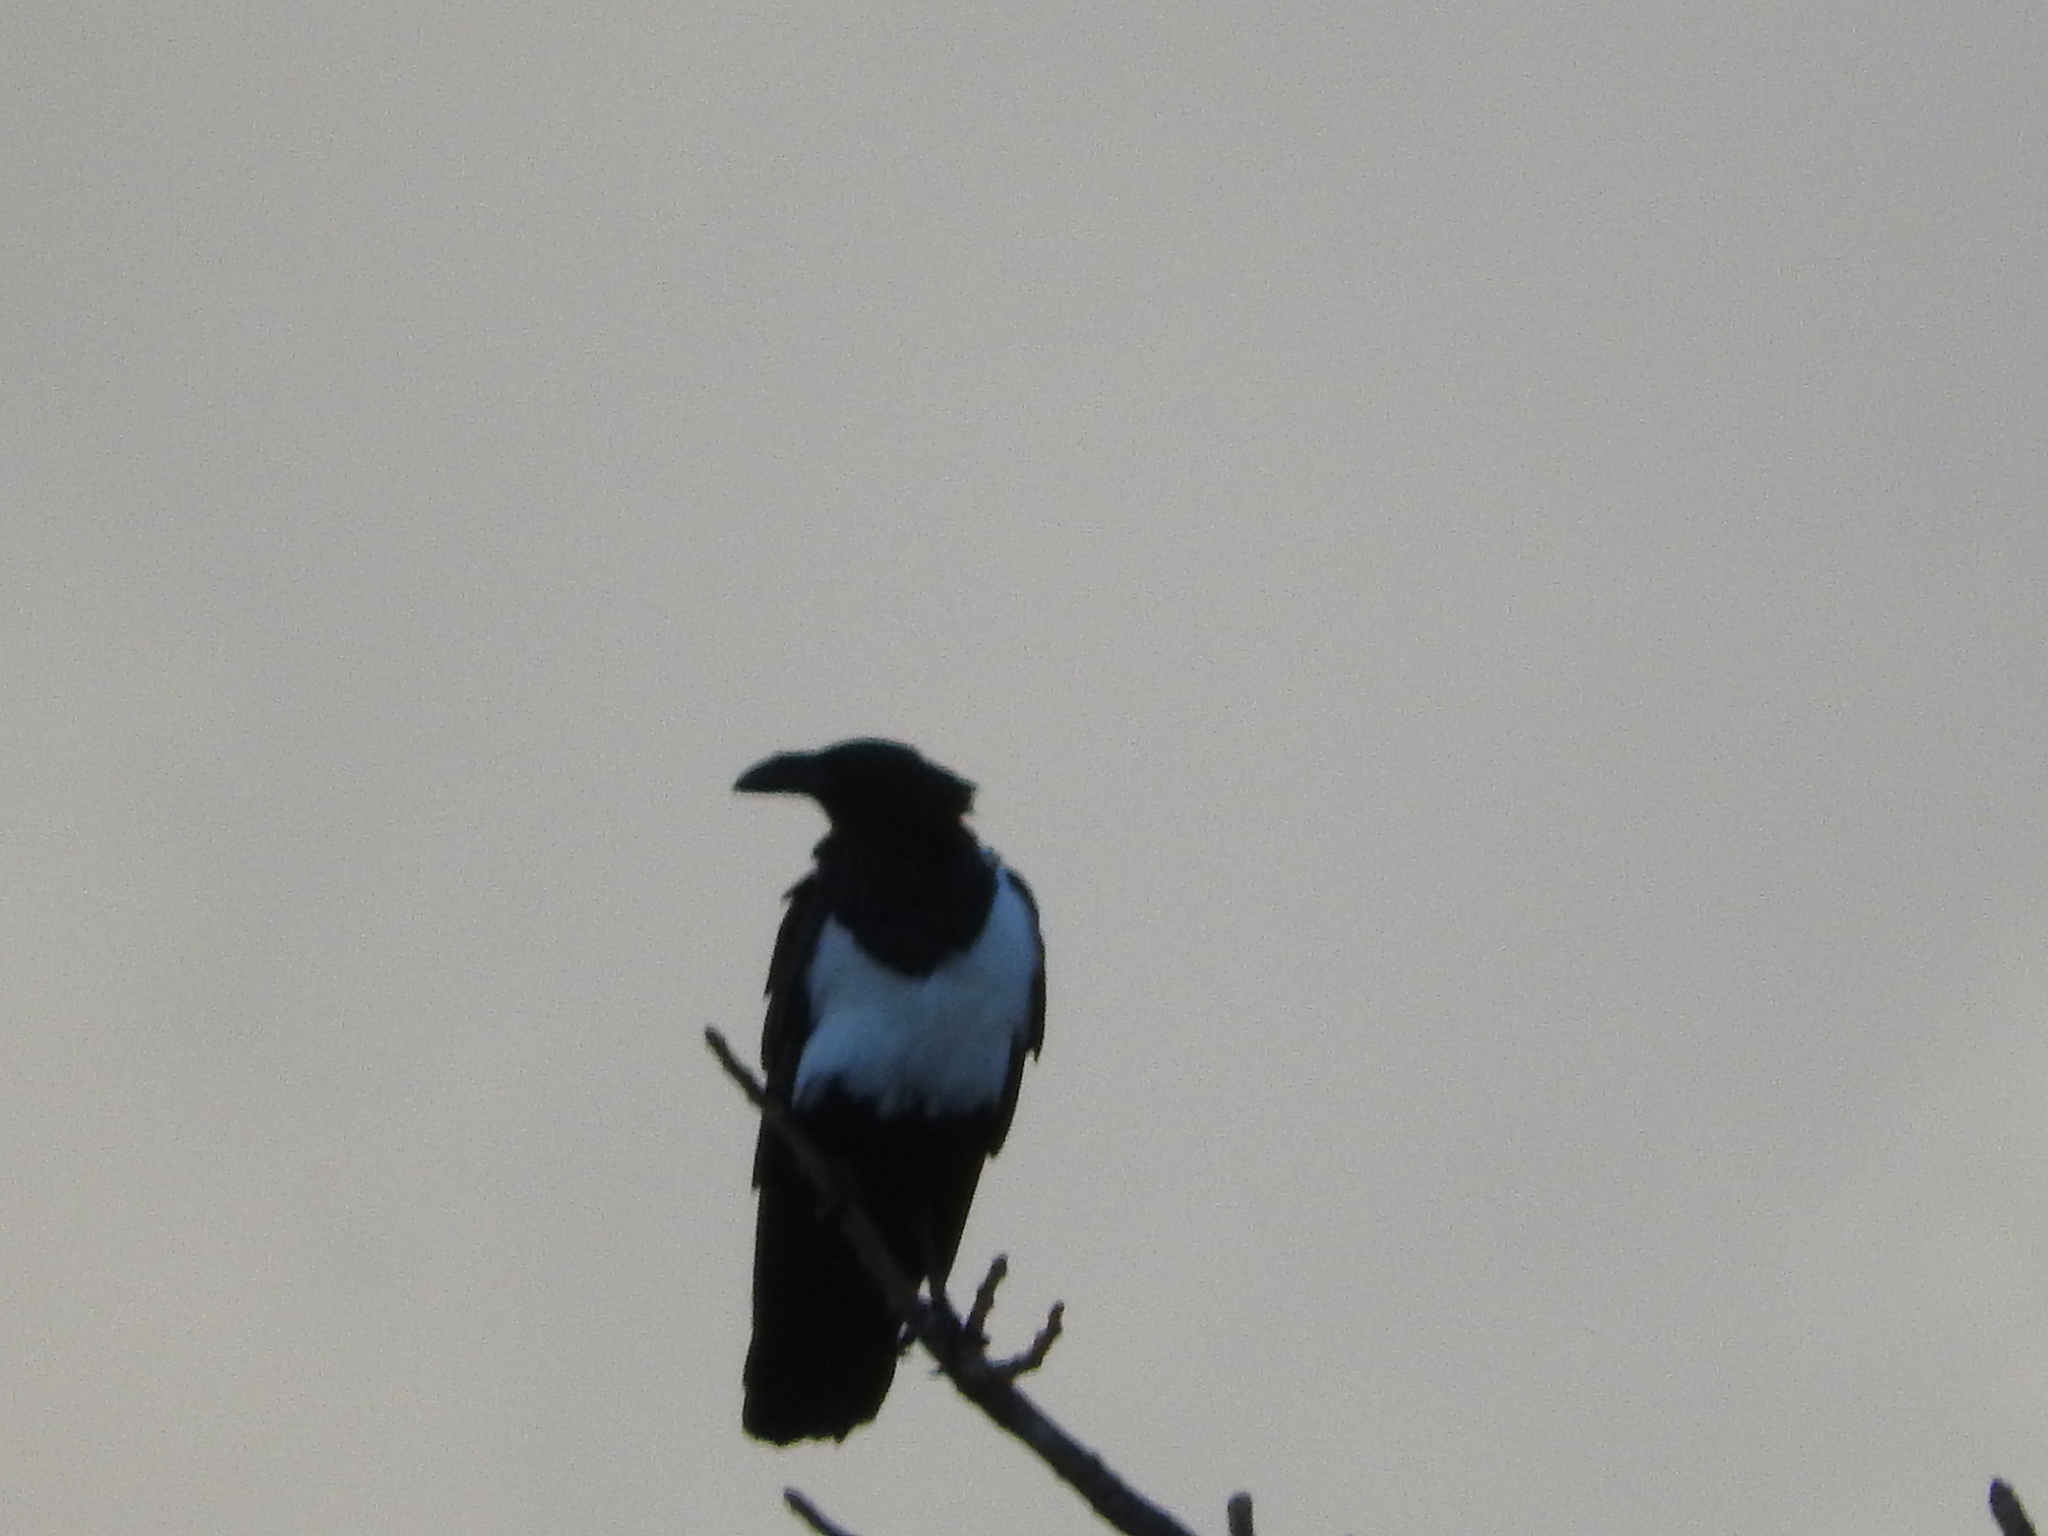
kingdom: Animalia
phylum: Chordata
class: Aves
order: Passeriformes
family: Corvidae
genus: Corvus
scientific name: Corvus albus
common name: Pied crow
